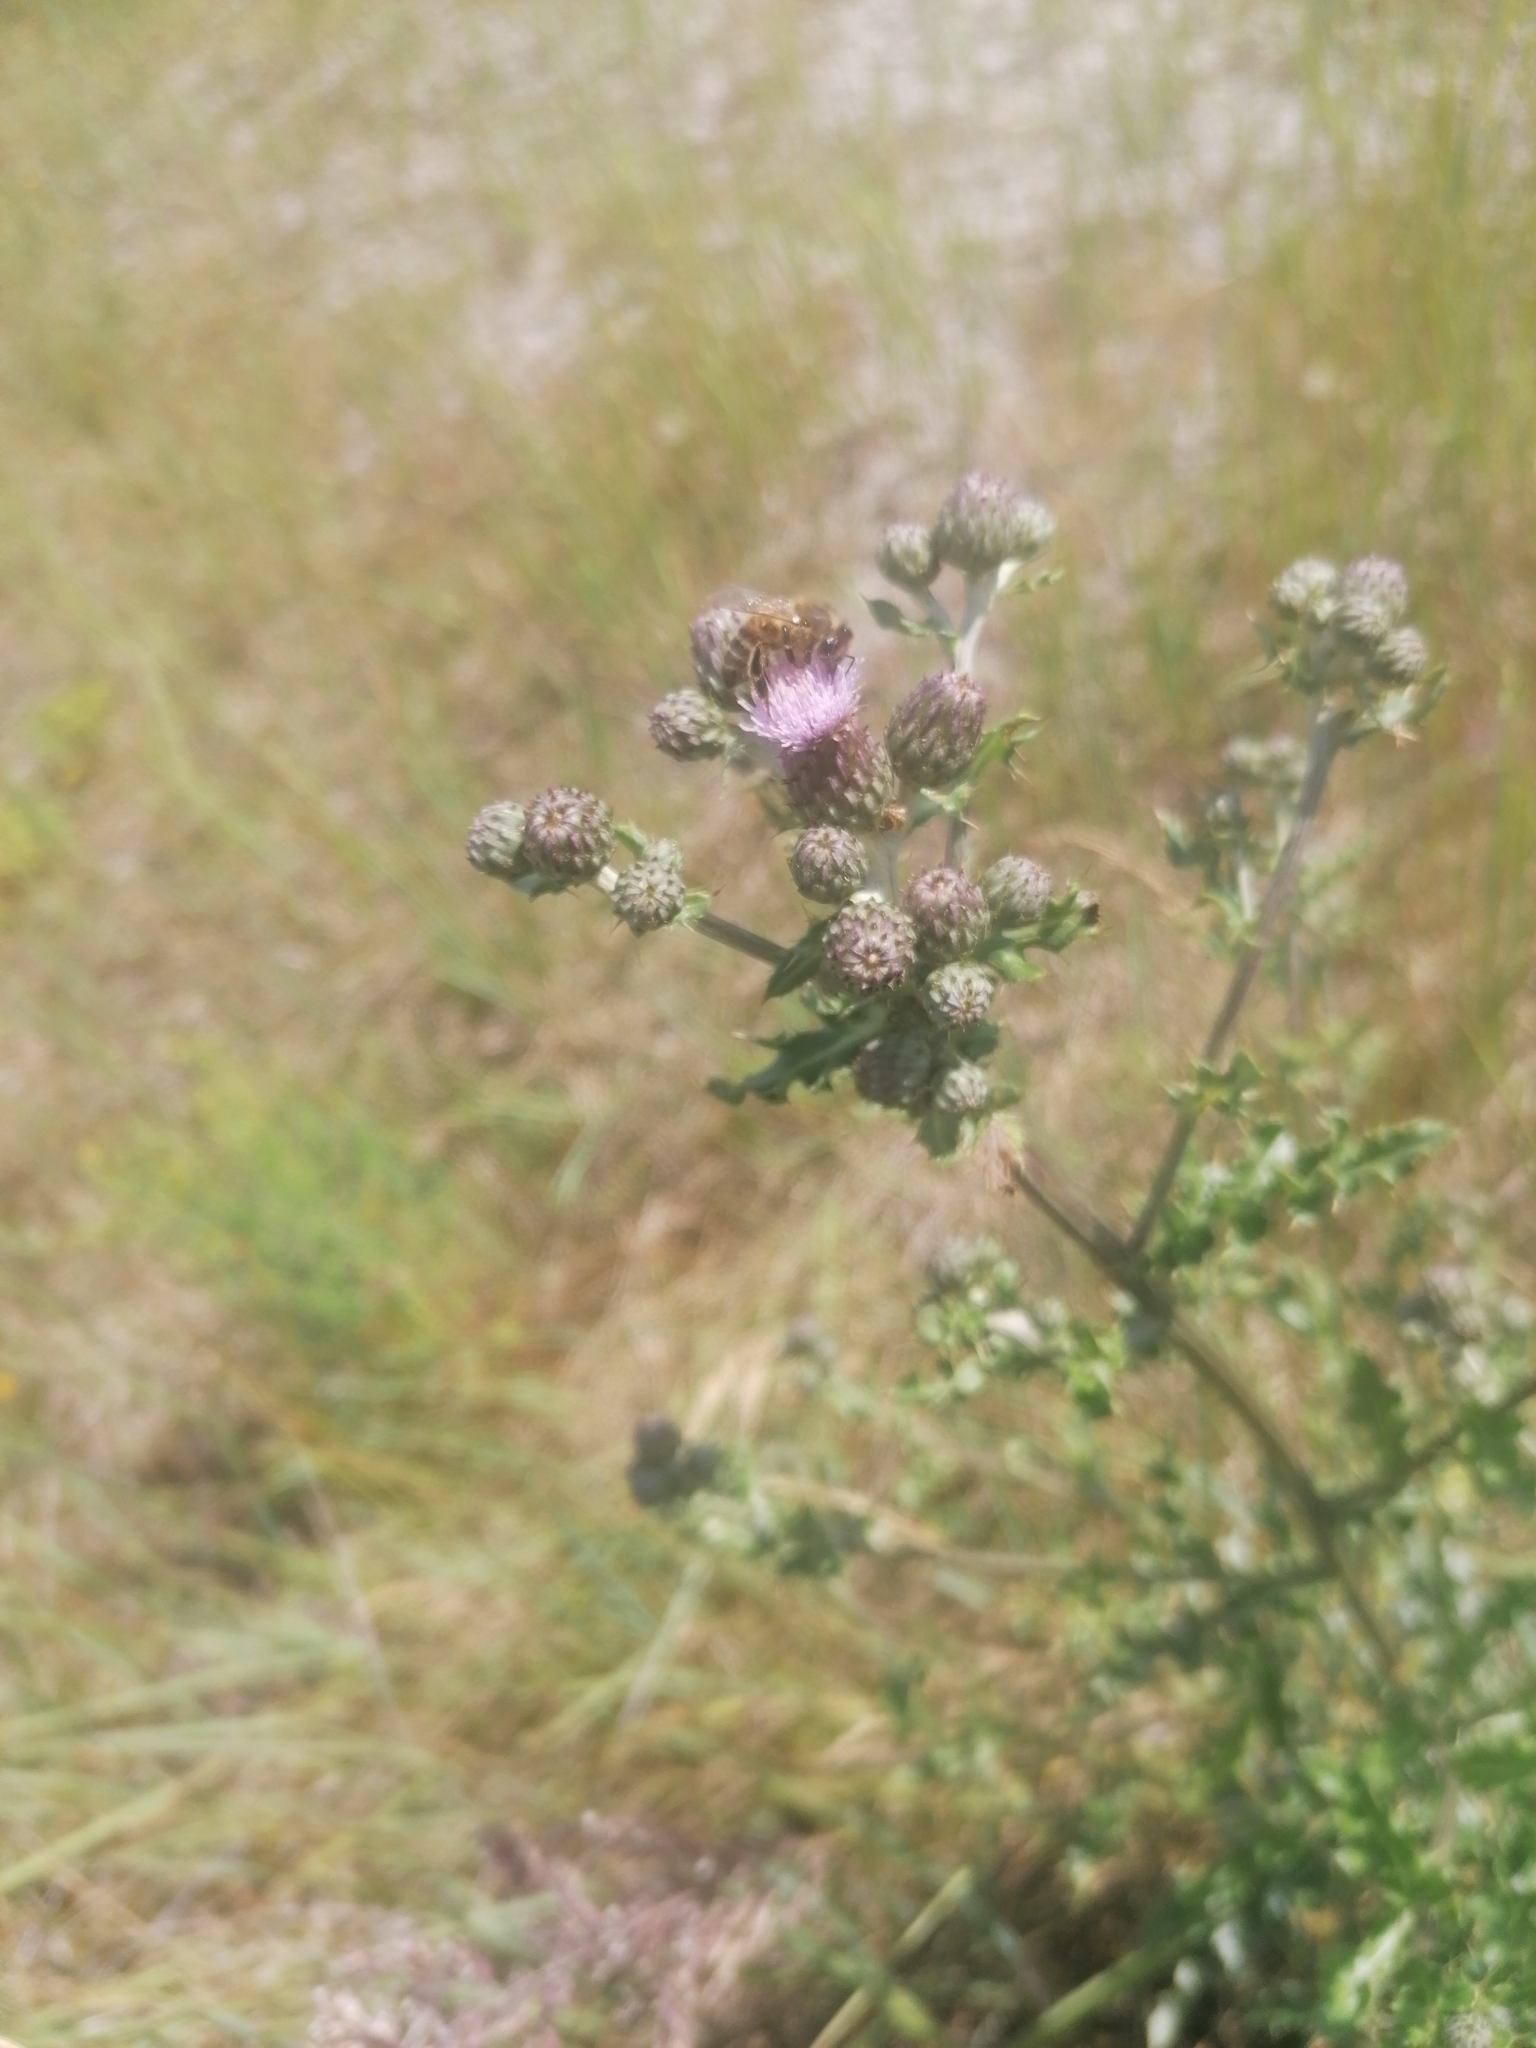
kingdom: Animalia
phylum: Arthropoda
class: Insecta
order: Hymenoptera
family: Apidae
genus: Apis
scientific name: Apis mellifera
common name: Honey bee
